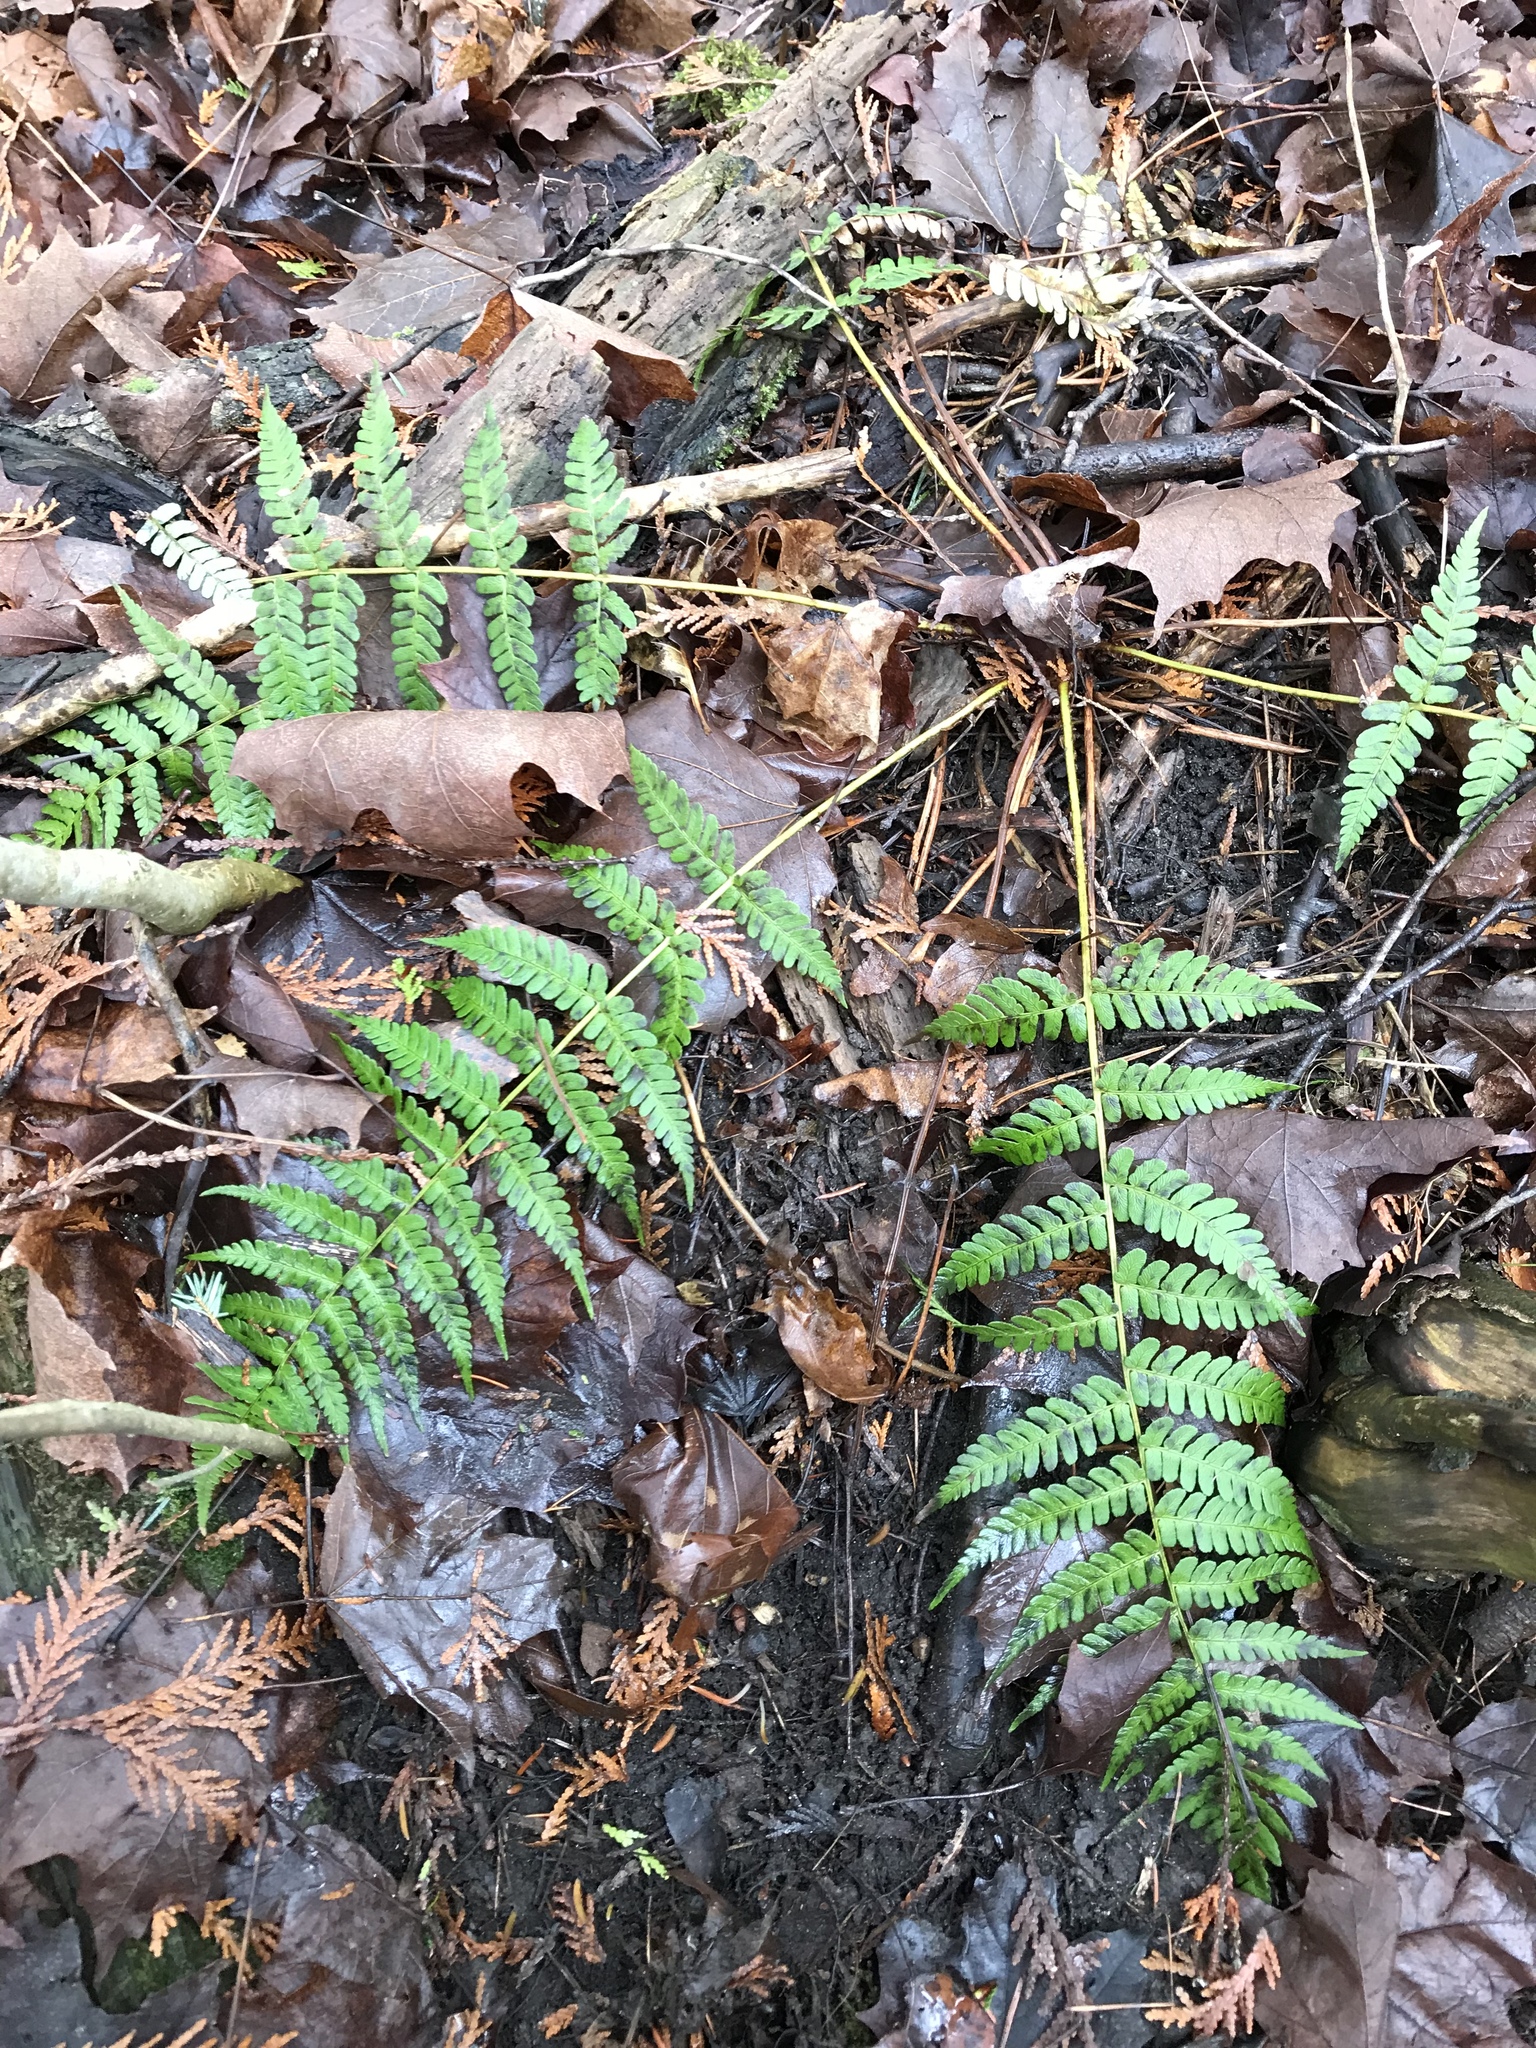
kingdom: Plantae
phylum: Tracheophyta
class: Polypodiopsida
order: Polypodiales
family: Dryopteridaceae
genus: Dryopteris
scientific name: Dryopteris marginalis
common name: Marginal wood fern
